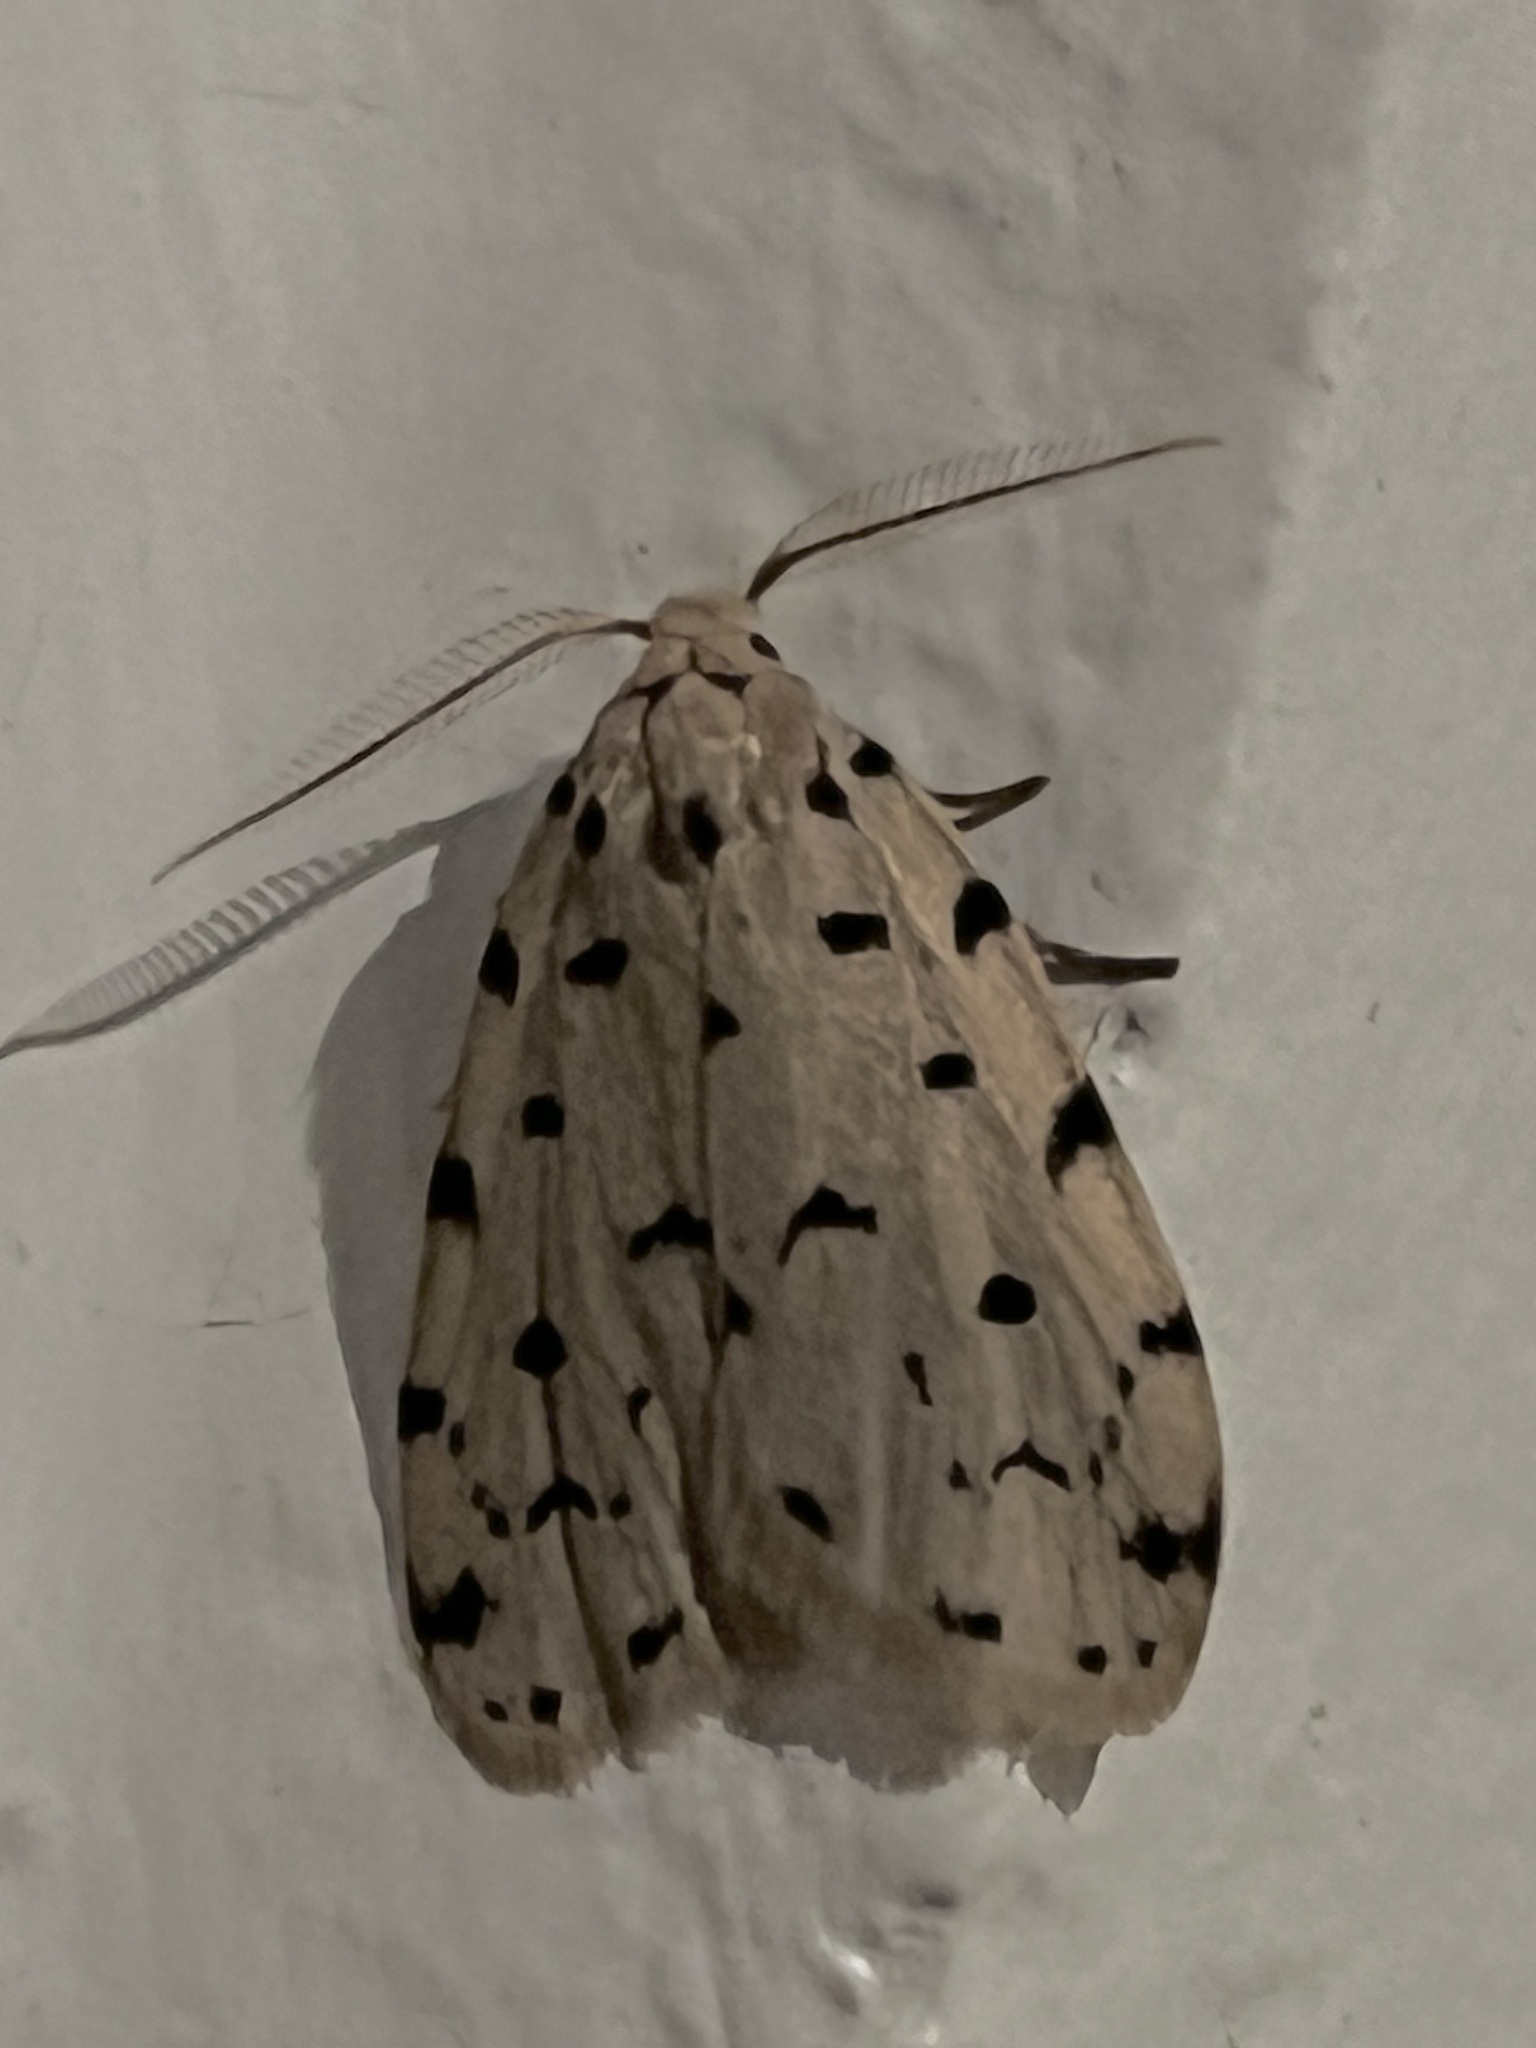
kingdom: Animalia
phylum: Arthropoda
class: Insecta
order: Lepidoptera
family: Erebidae
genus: Siccia
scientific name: Siccia caffra
